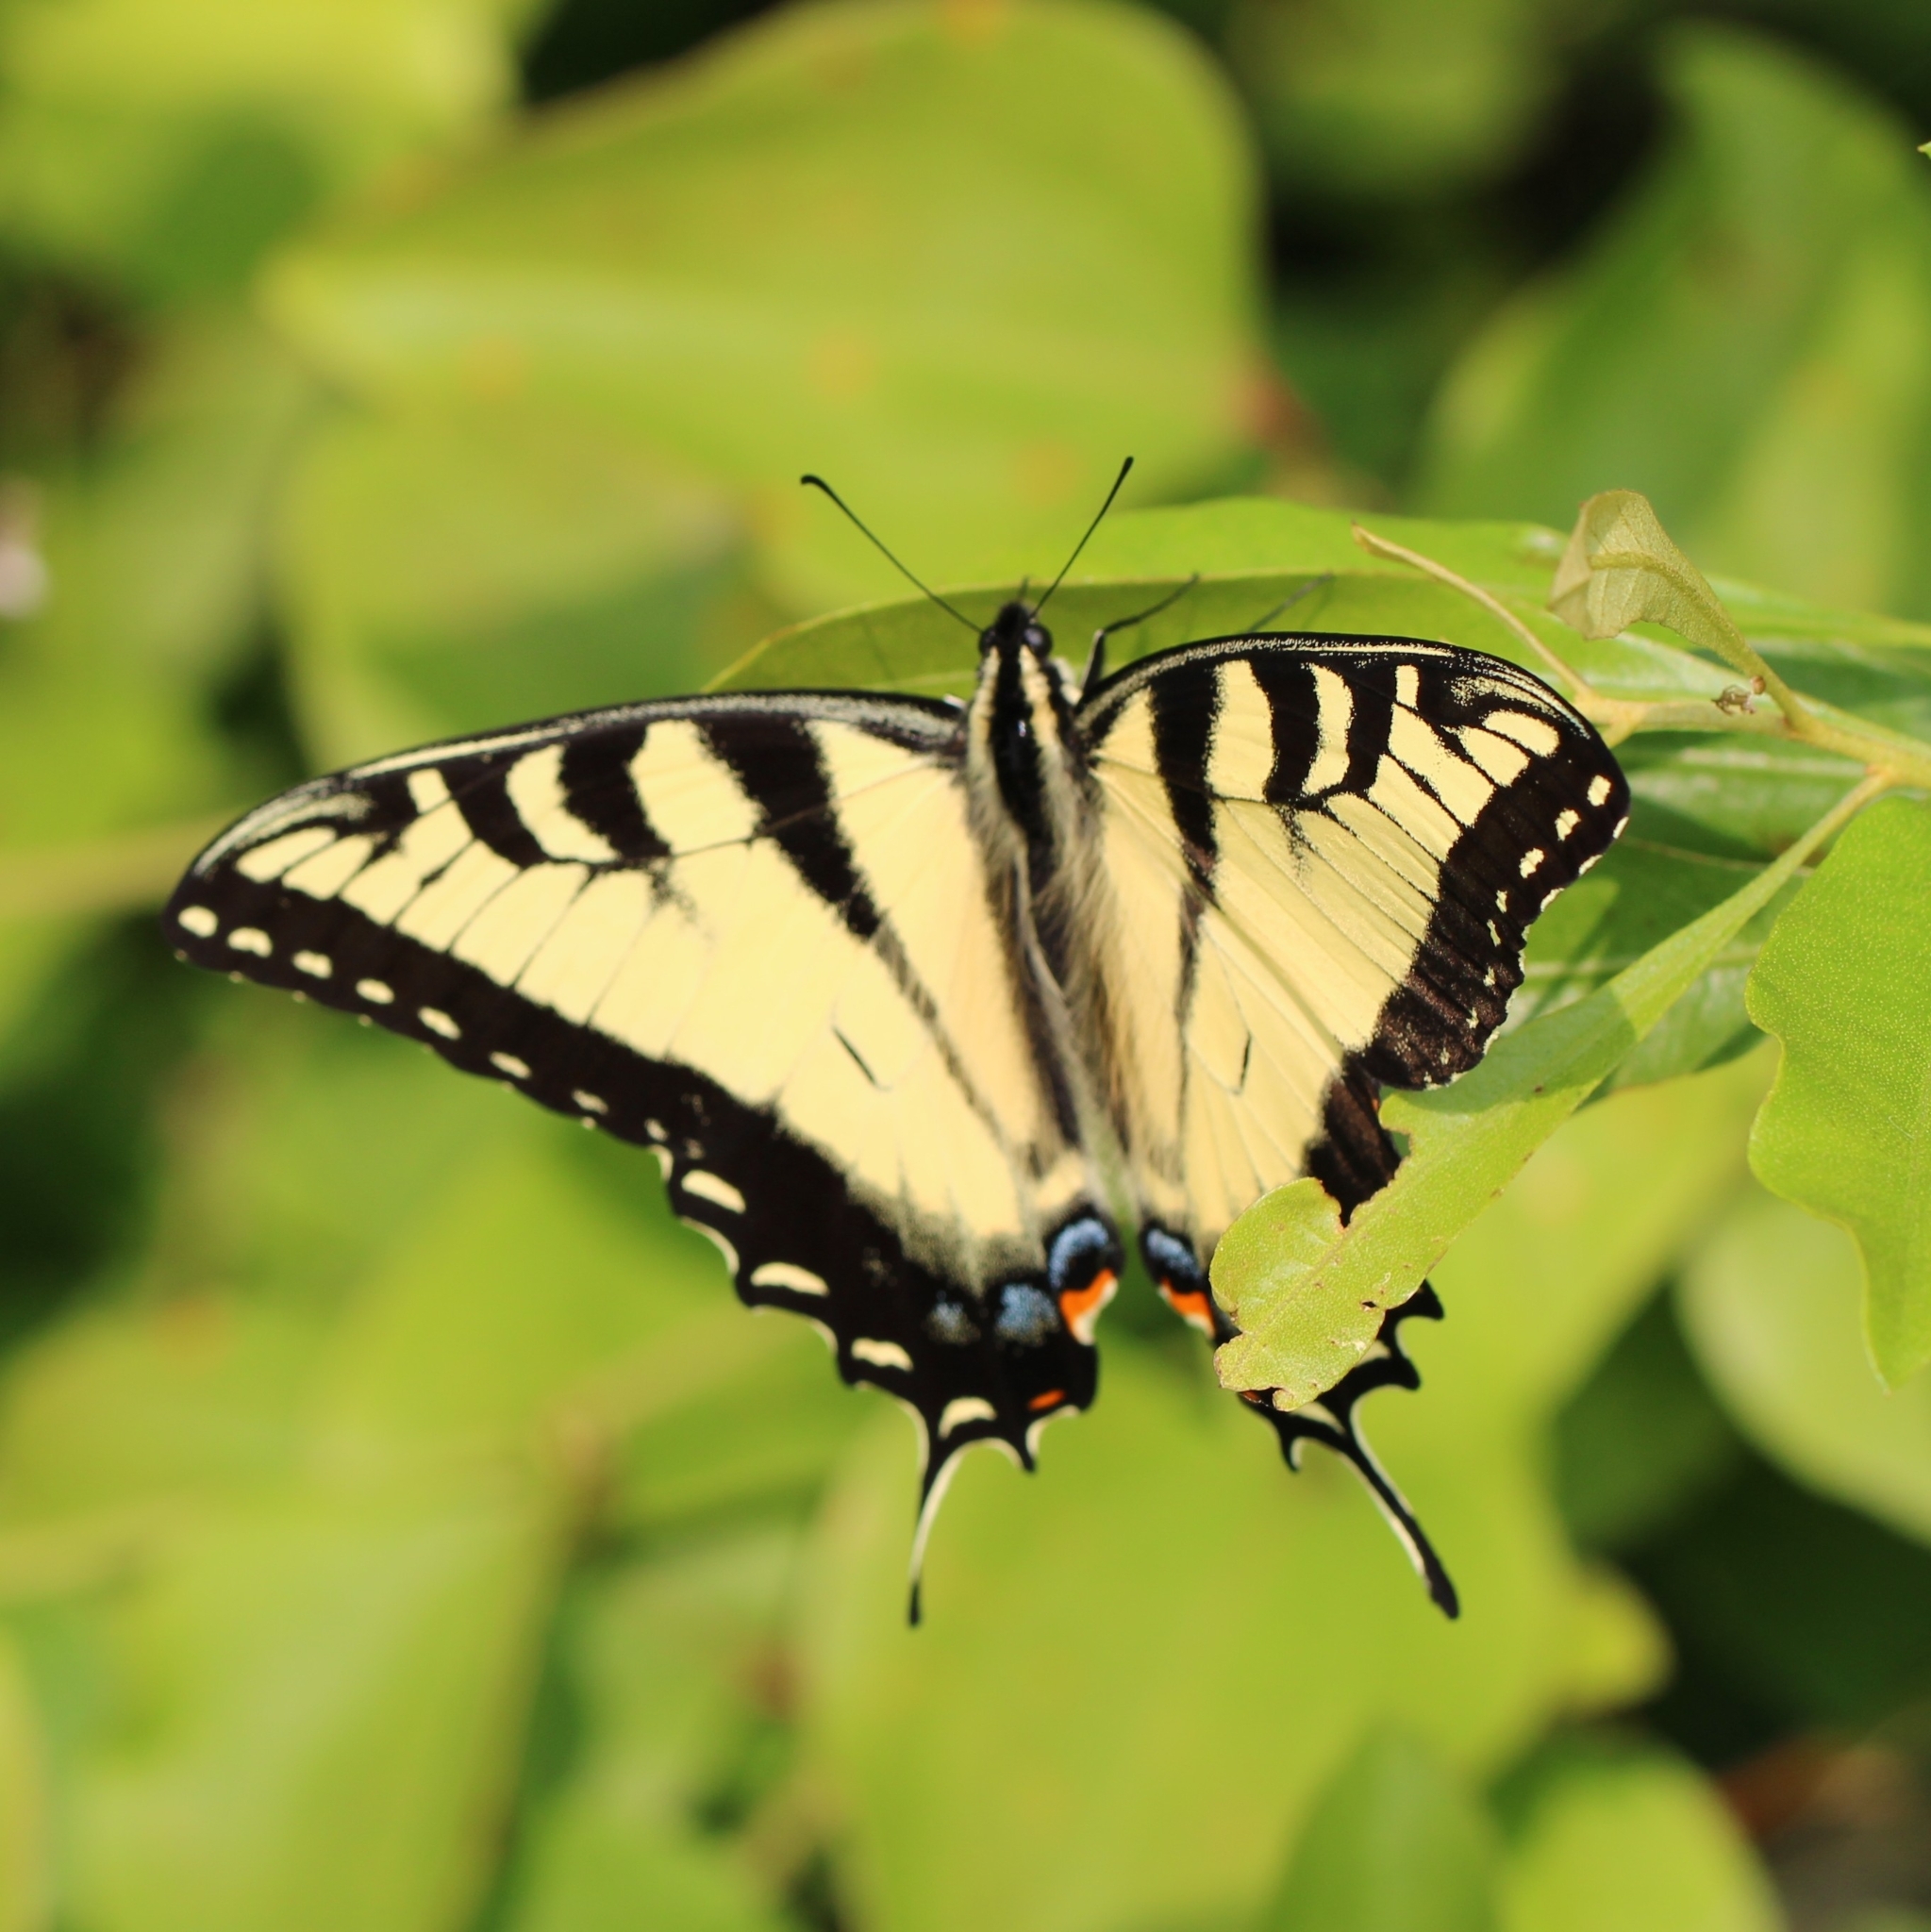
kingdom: Animalia
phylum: Arthropoda
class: Insecta
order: Lepidoptera
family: Papilionidae
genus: Papilio
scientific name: Papilio glaucus
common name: Tiger swallowtail
